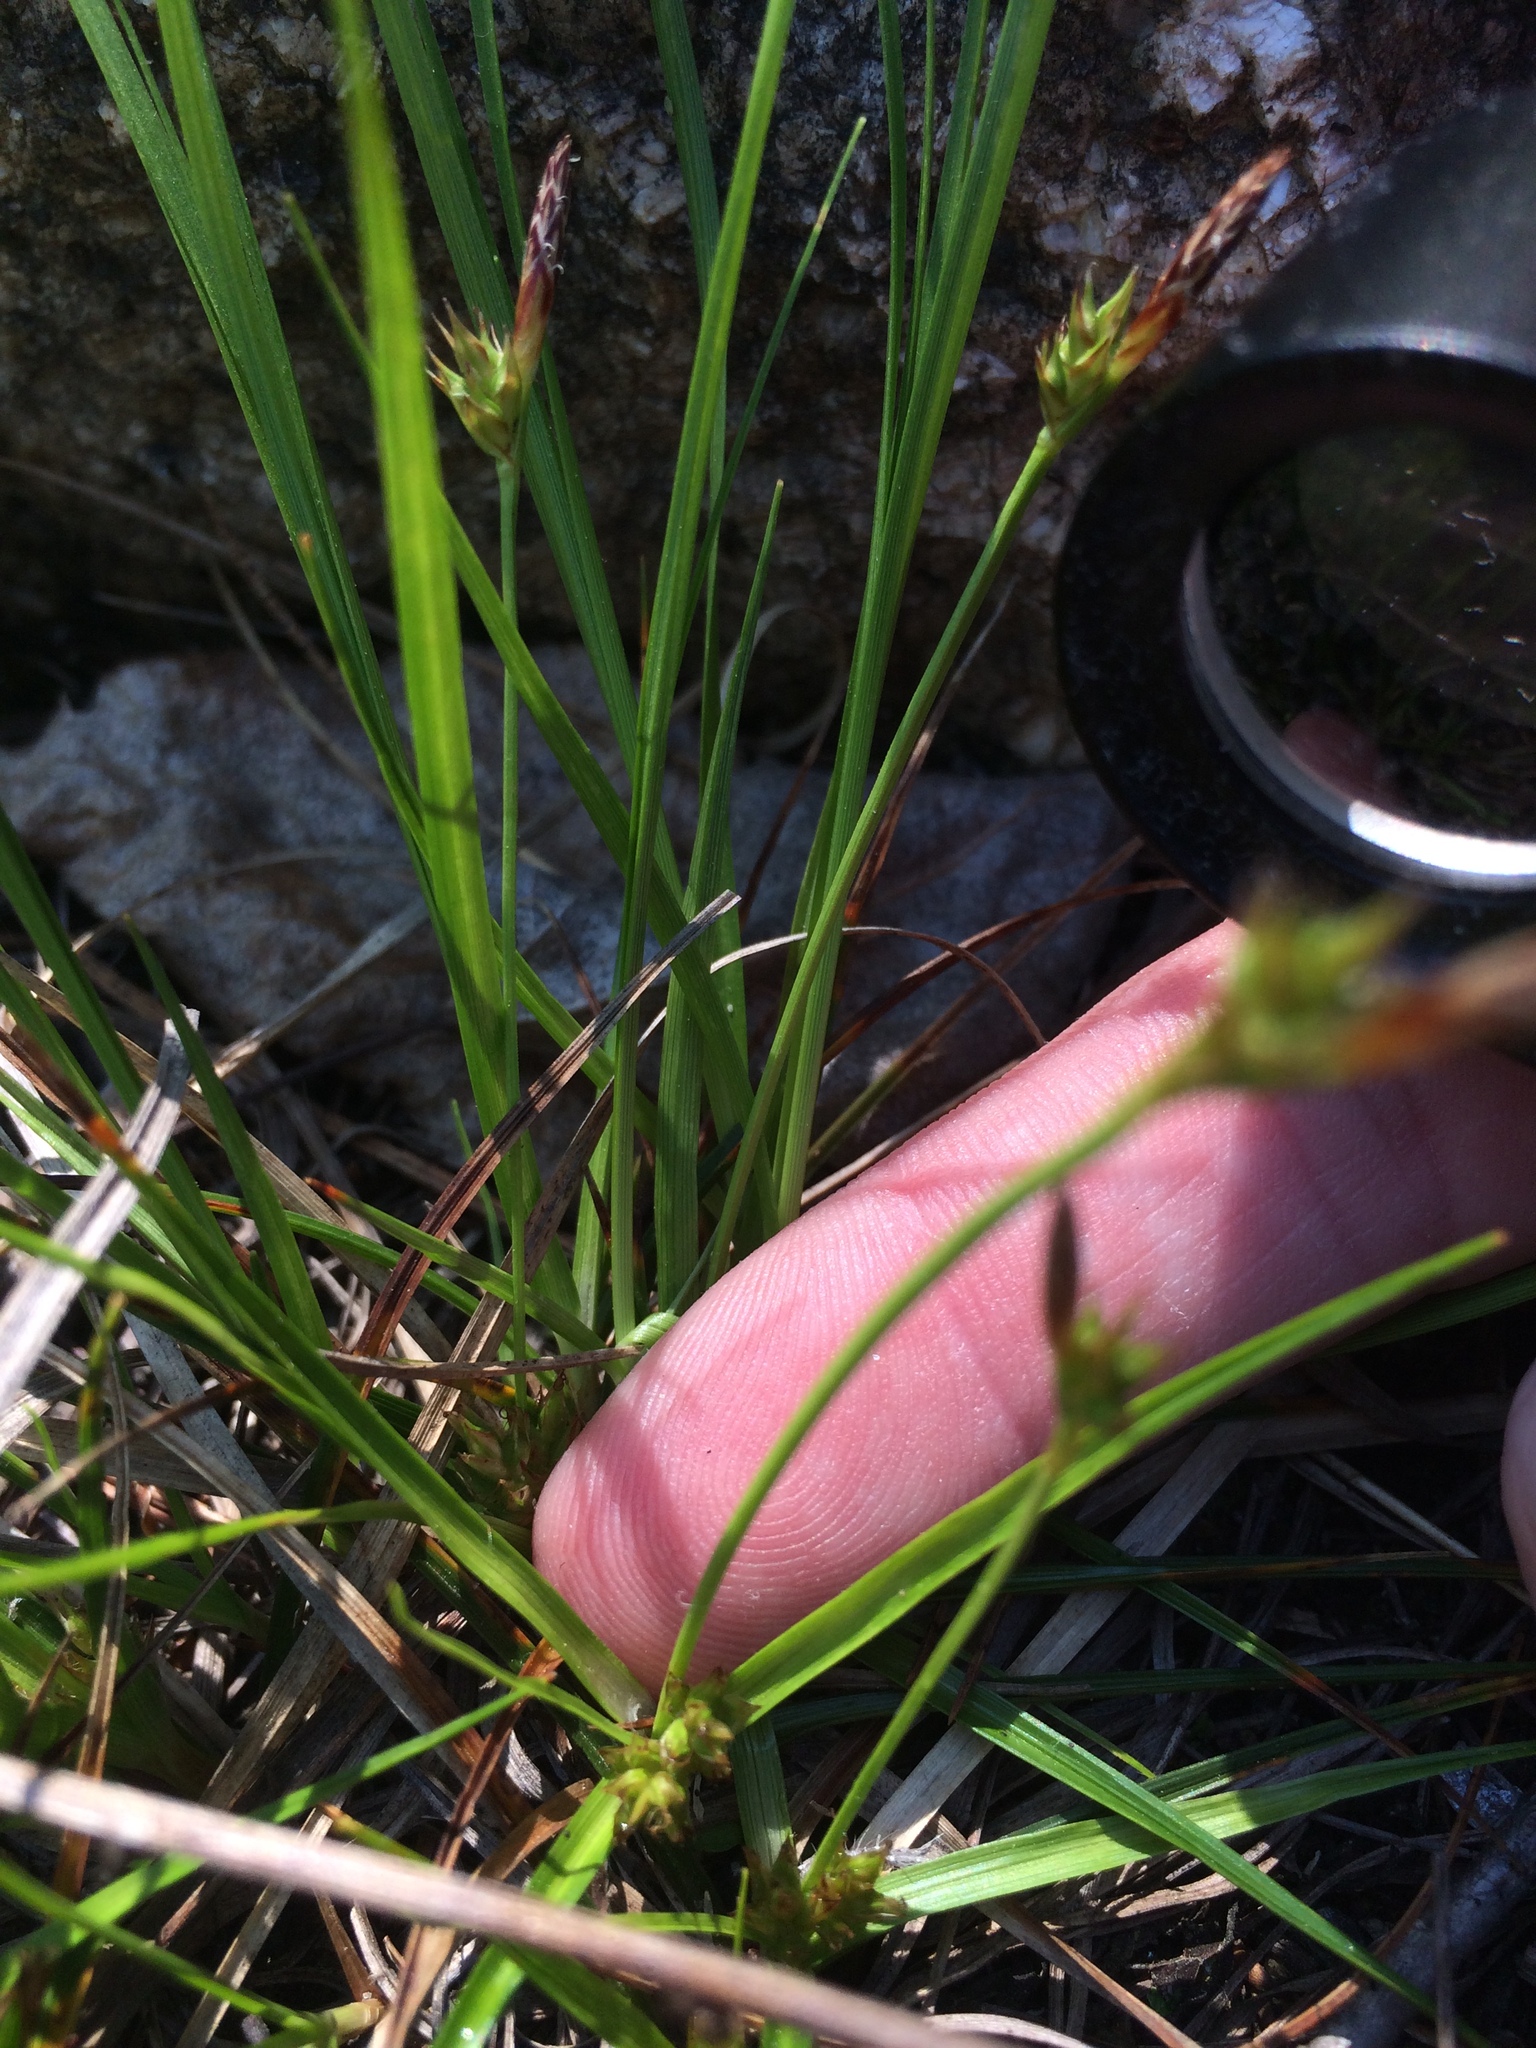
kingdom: Plantae
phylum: Tracheophyta
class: Liliopsida
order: Poales
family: Cyperaceae
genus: Carex
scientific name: Carex tonsa
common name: Bald sedge
